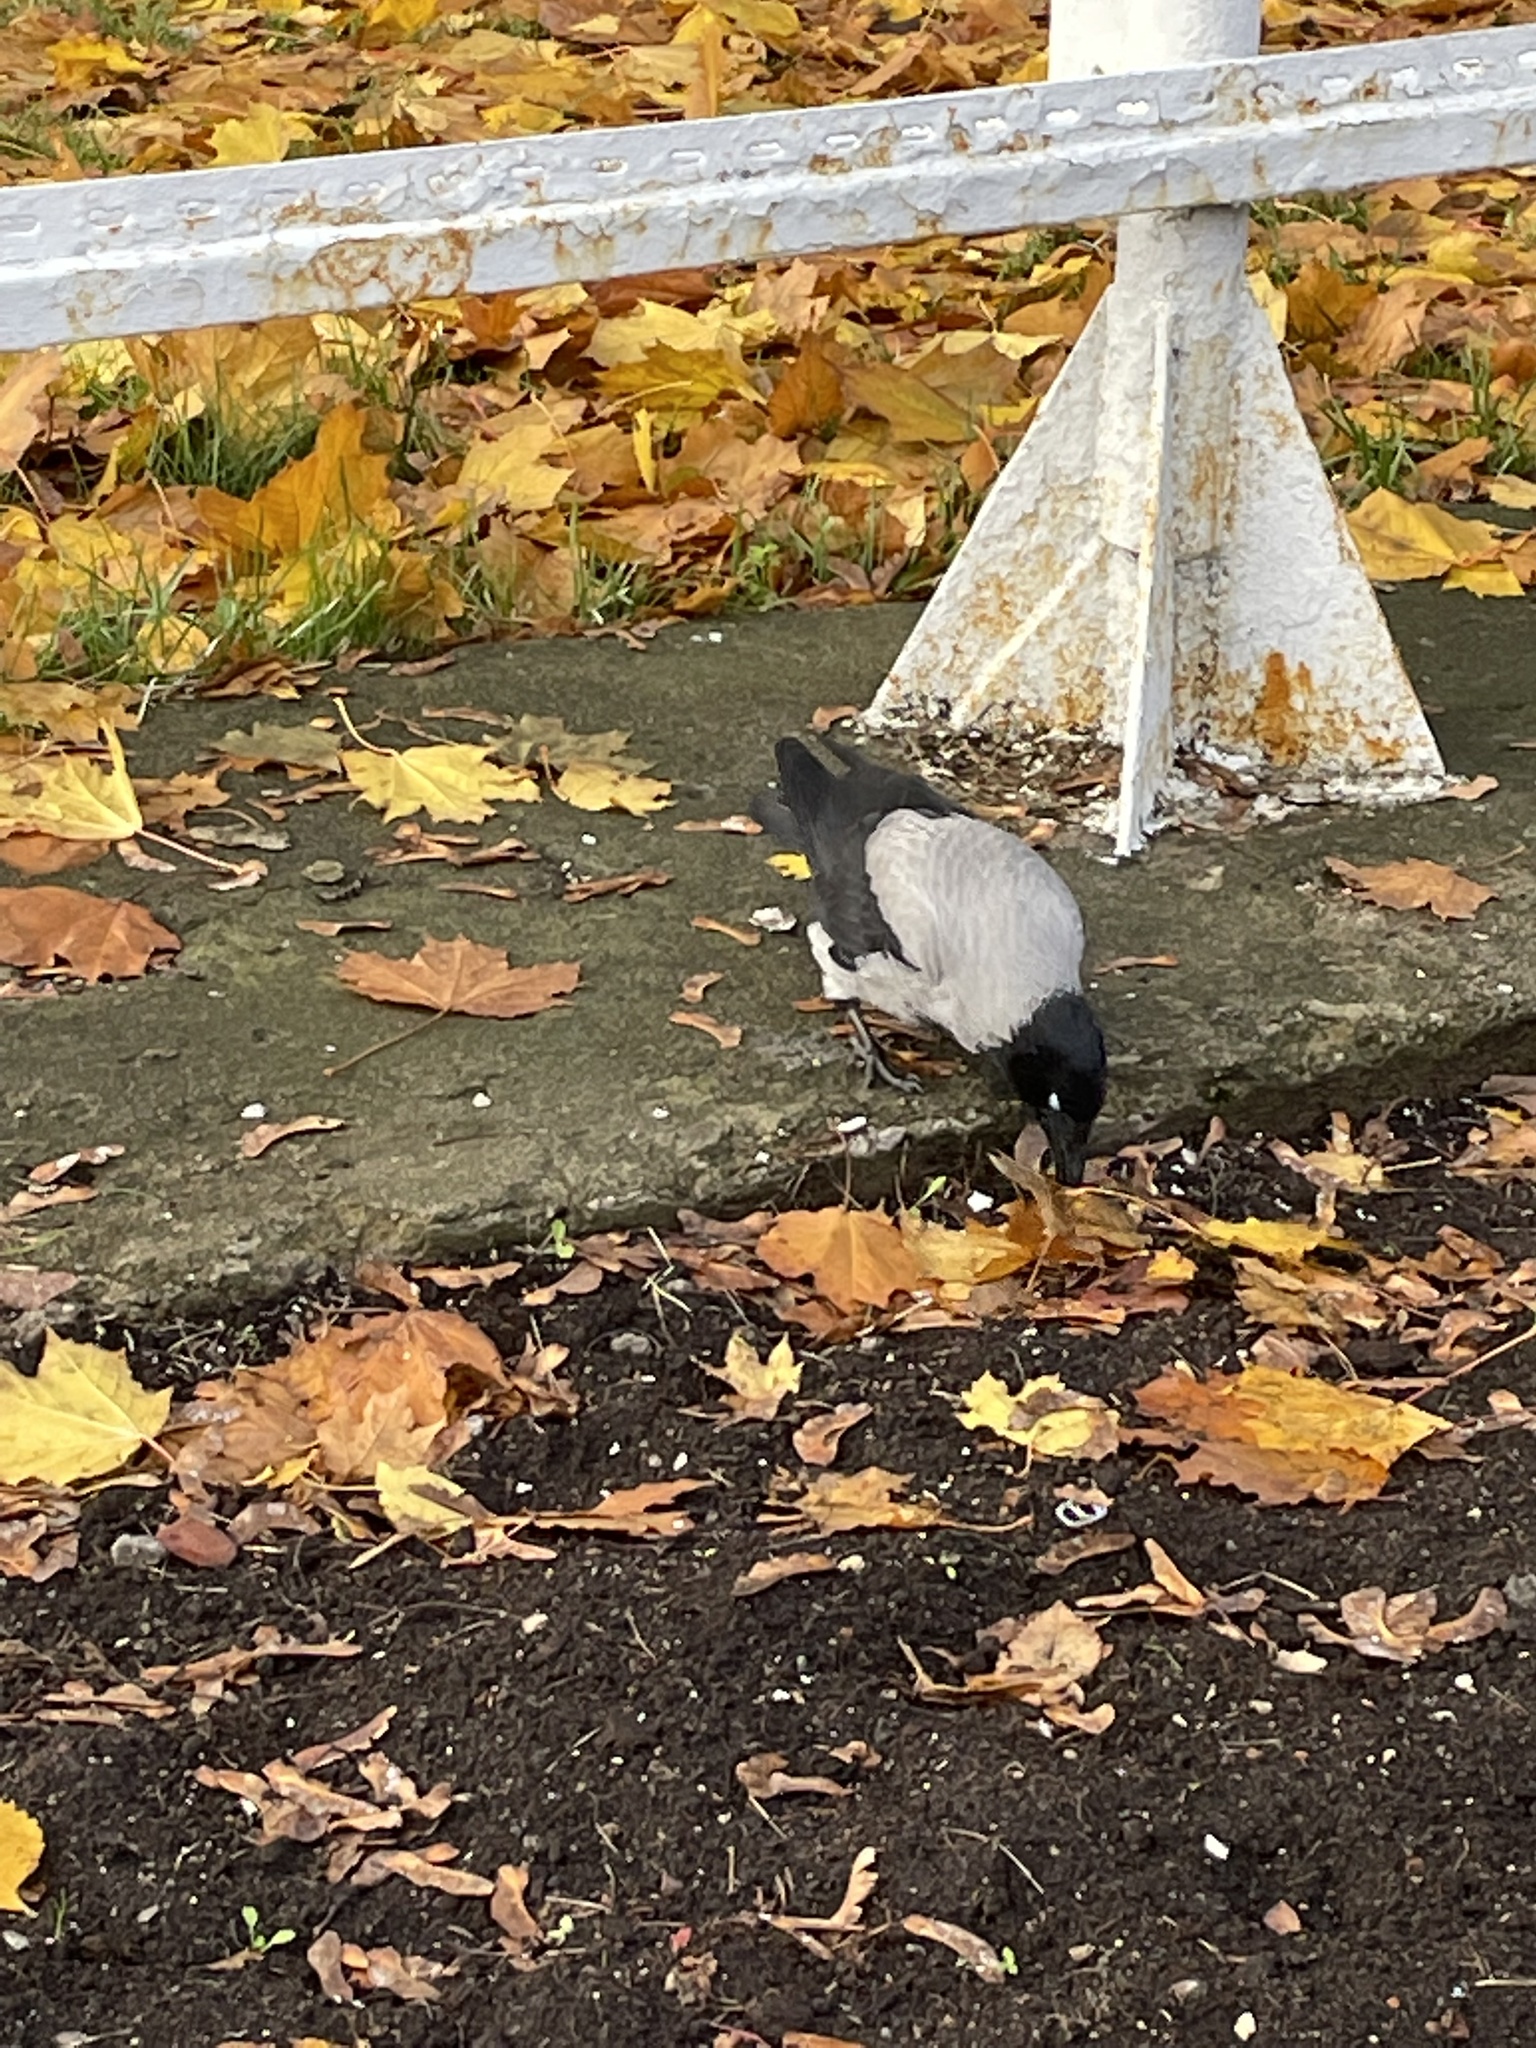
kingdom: Animalia
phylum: Chordata
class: Aves
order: Passeriformes
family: Corvidae
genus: Corvus
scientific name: Corvus cornix
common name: Hooded crow
